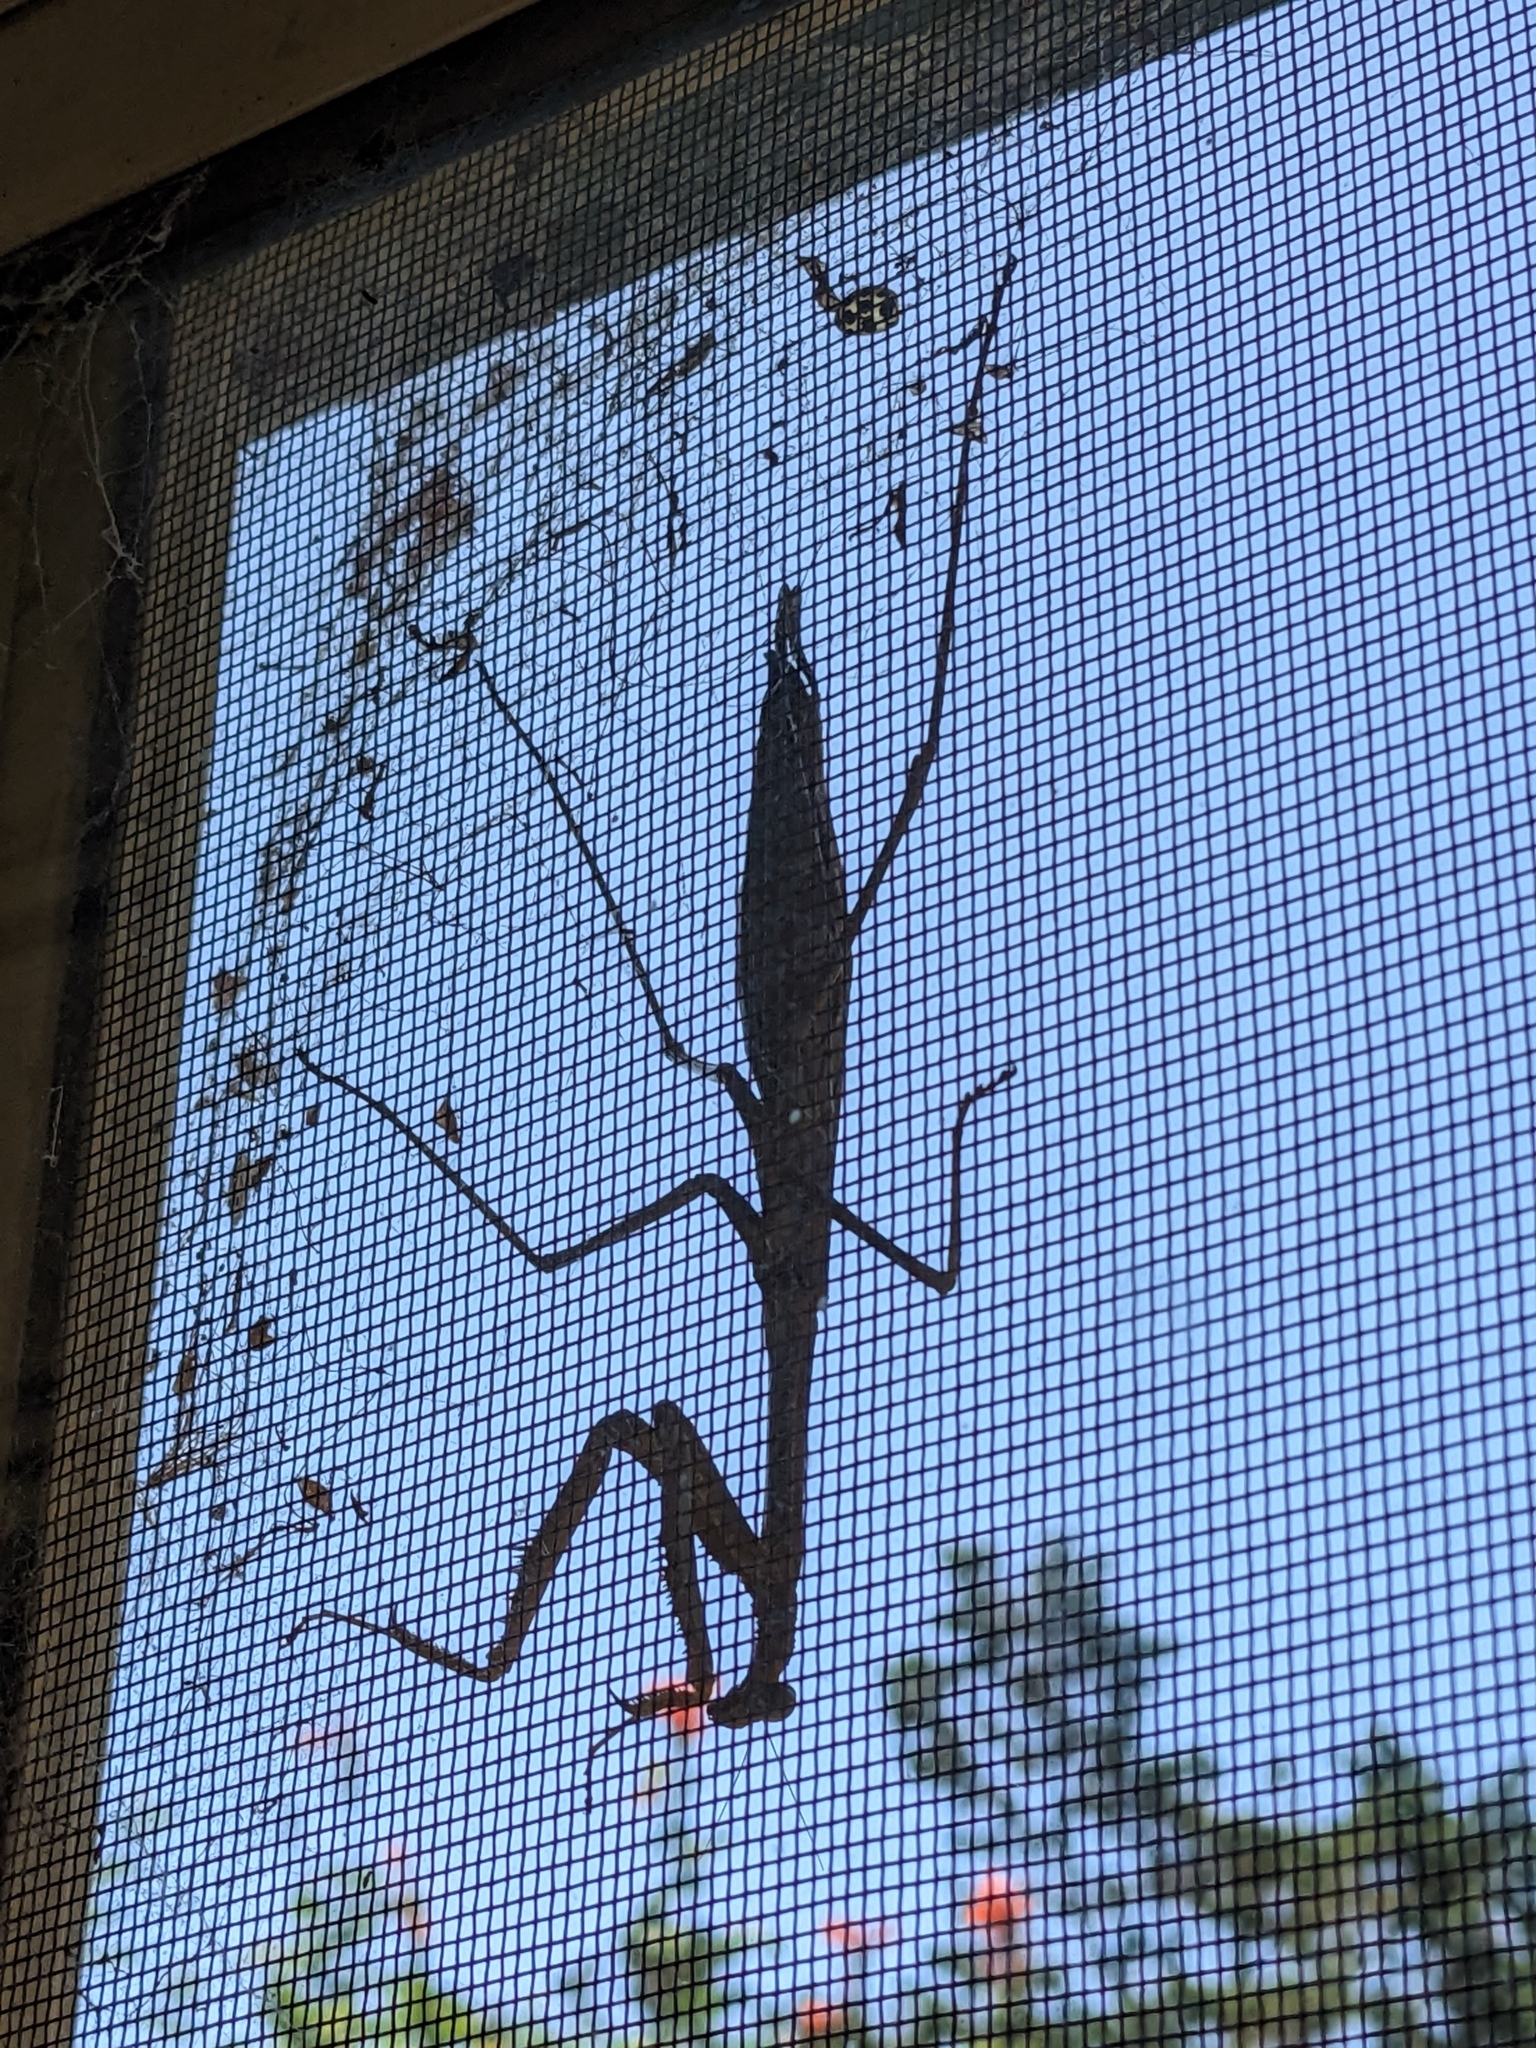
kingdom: Animalia
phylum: Arthropoda
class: Insecta
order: Mantodea
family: Mantidae
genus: Archimantis
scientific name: Archimantis sobrina
